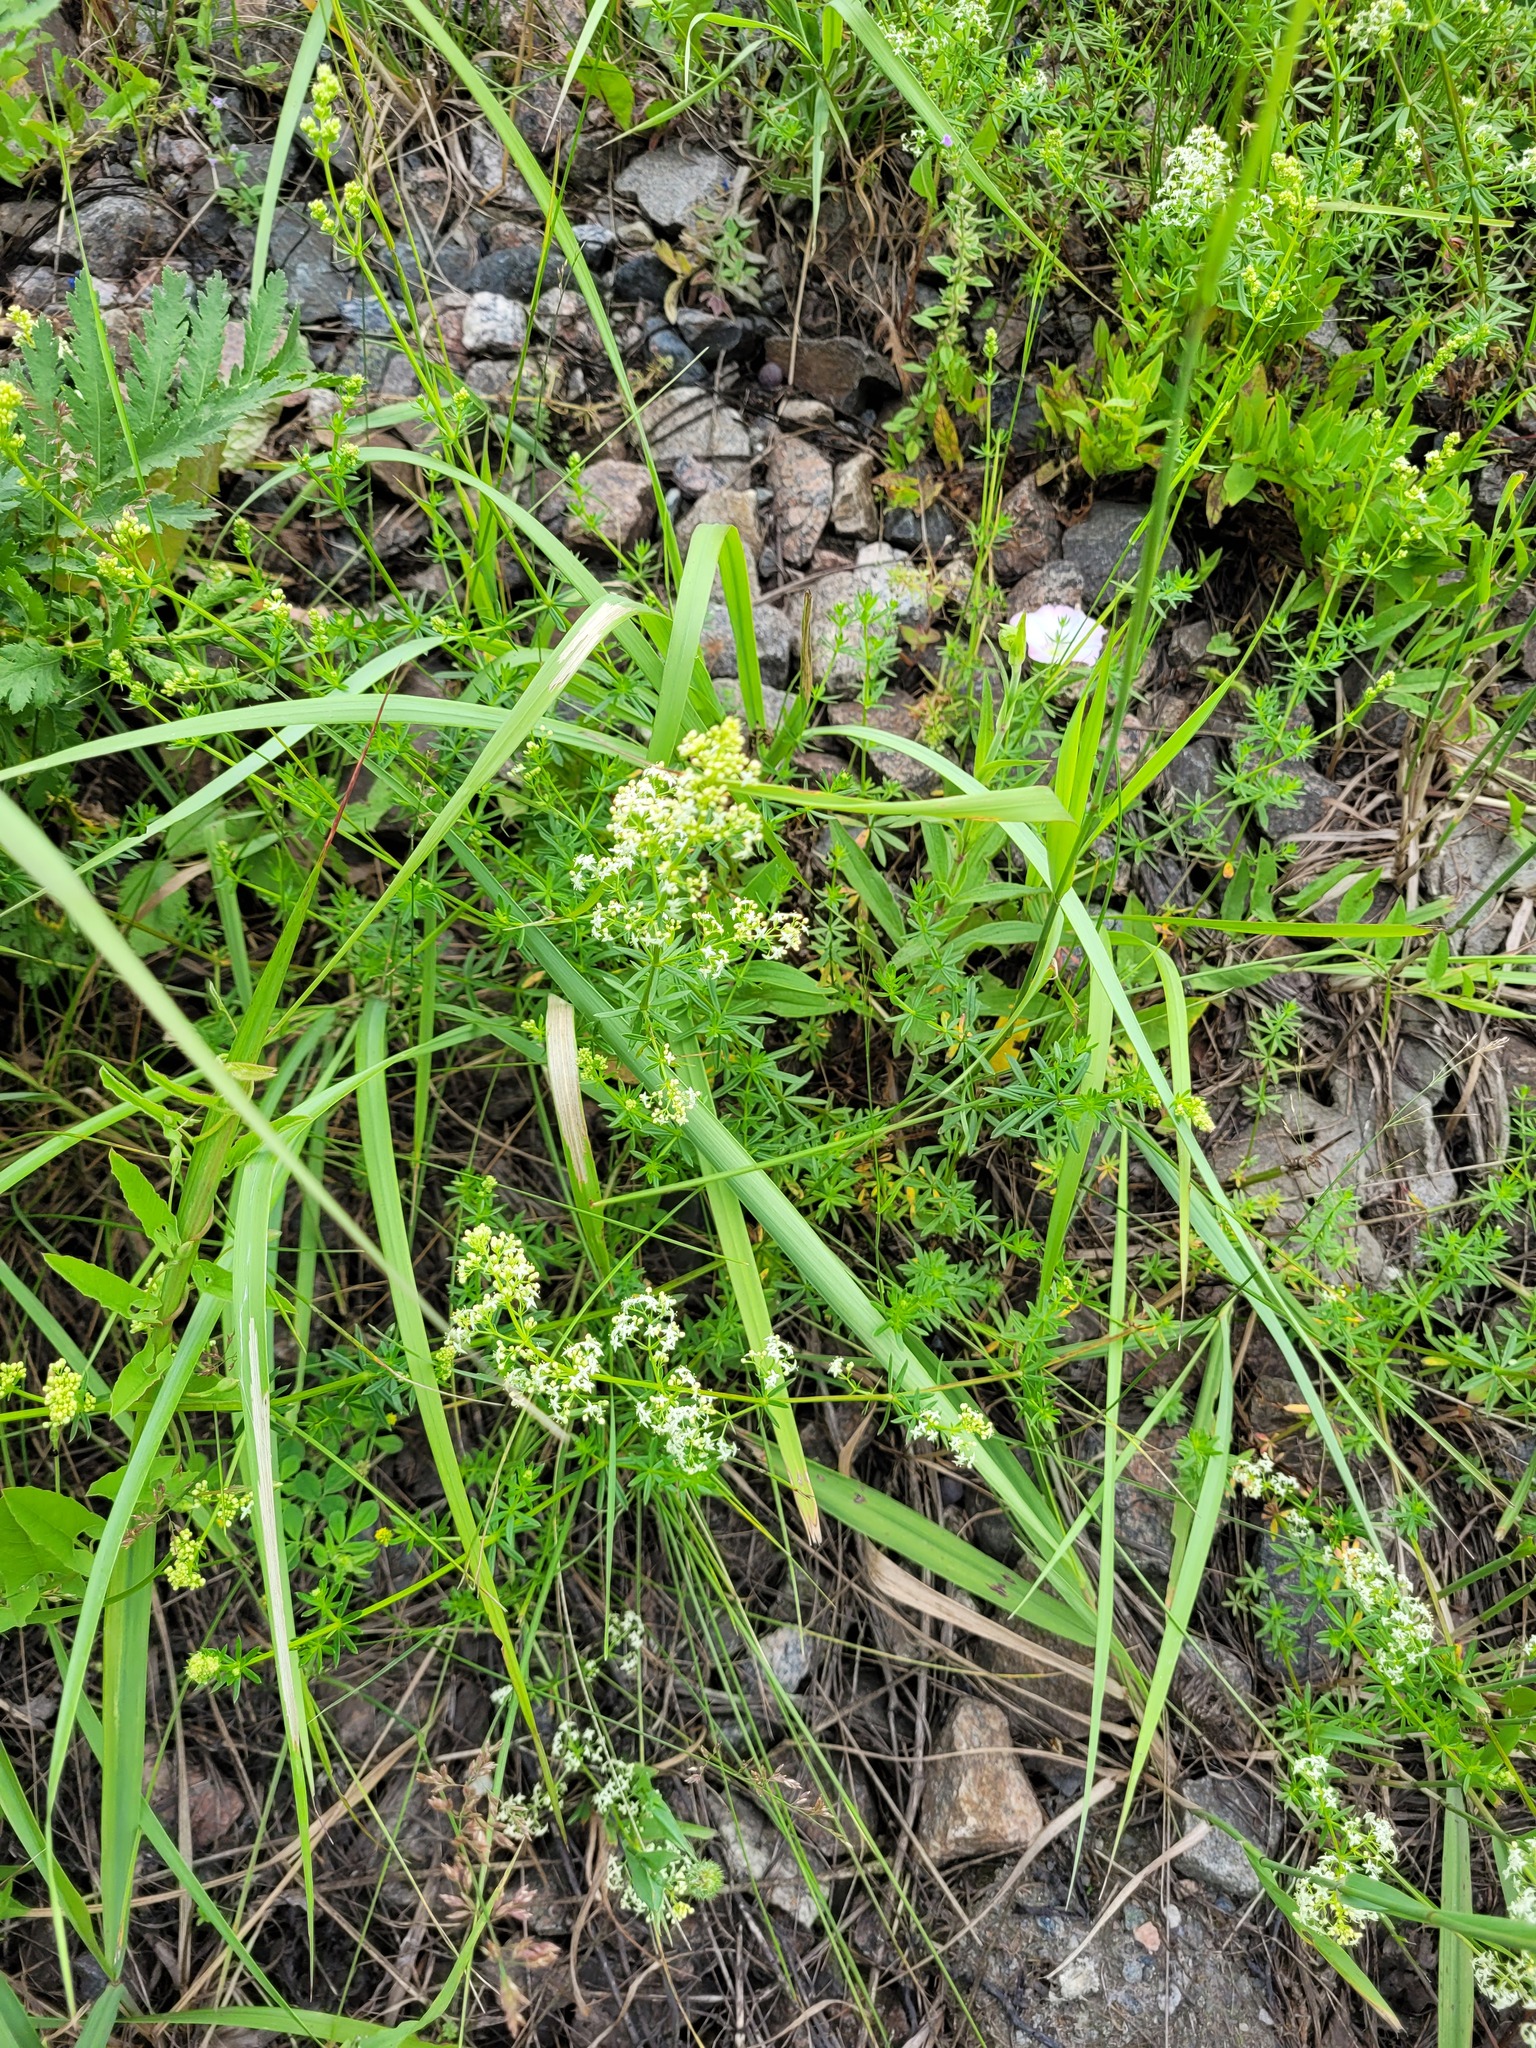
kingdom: Plantae
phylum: Tracheophyta
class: Magnoliopsida
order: Gentianales
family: Rubiaceae
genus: Galium
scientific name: Galium mollugo
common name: Hedge bedstraw
